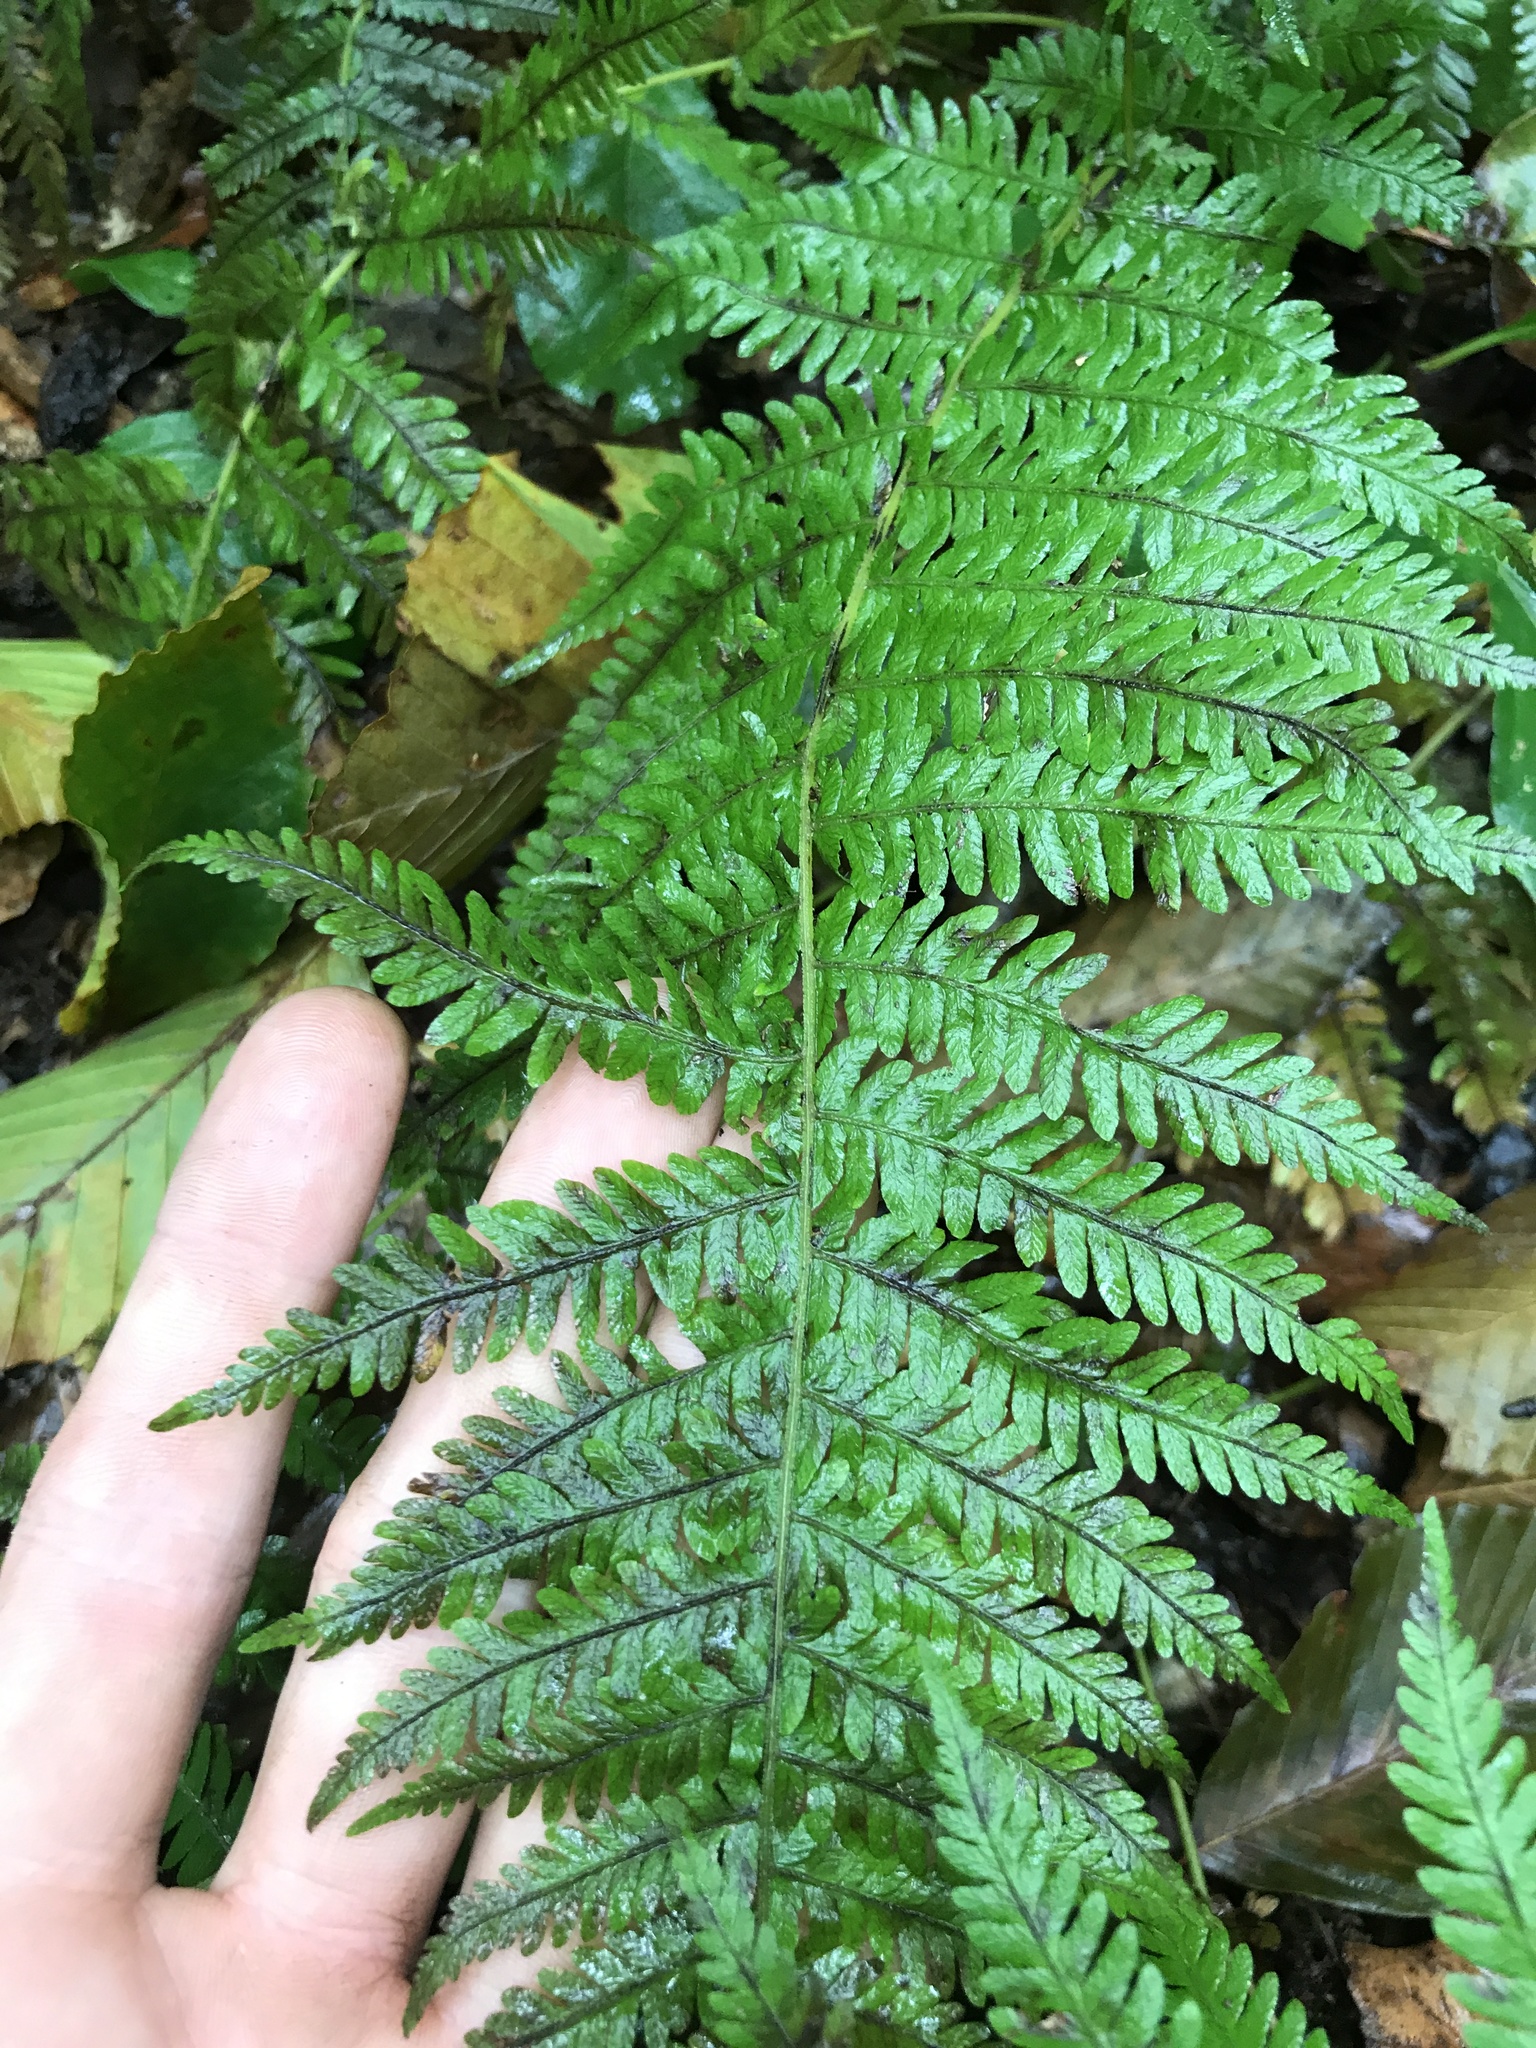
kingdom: Plantae
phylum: Tracheophyta
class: Polypodiopsida
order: Polypodiales
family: Thelypteridaceae
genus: Amauropelta
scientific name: Amauropelta noveboracensis
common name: New york fern
